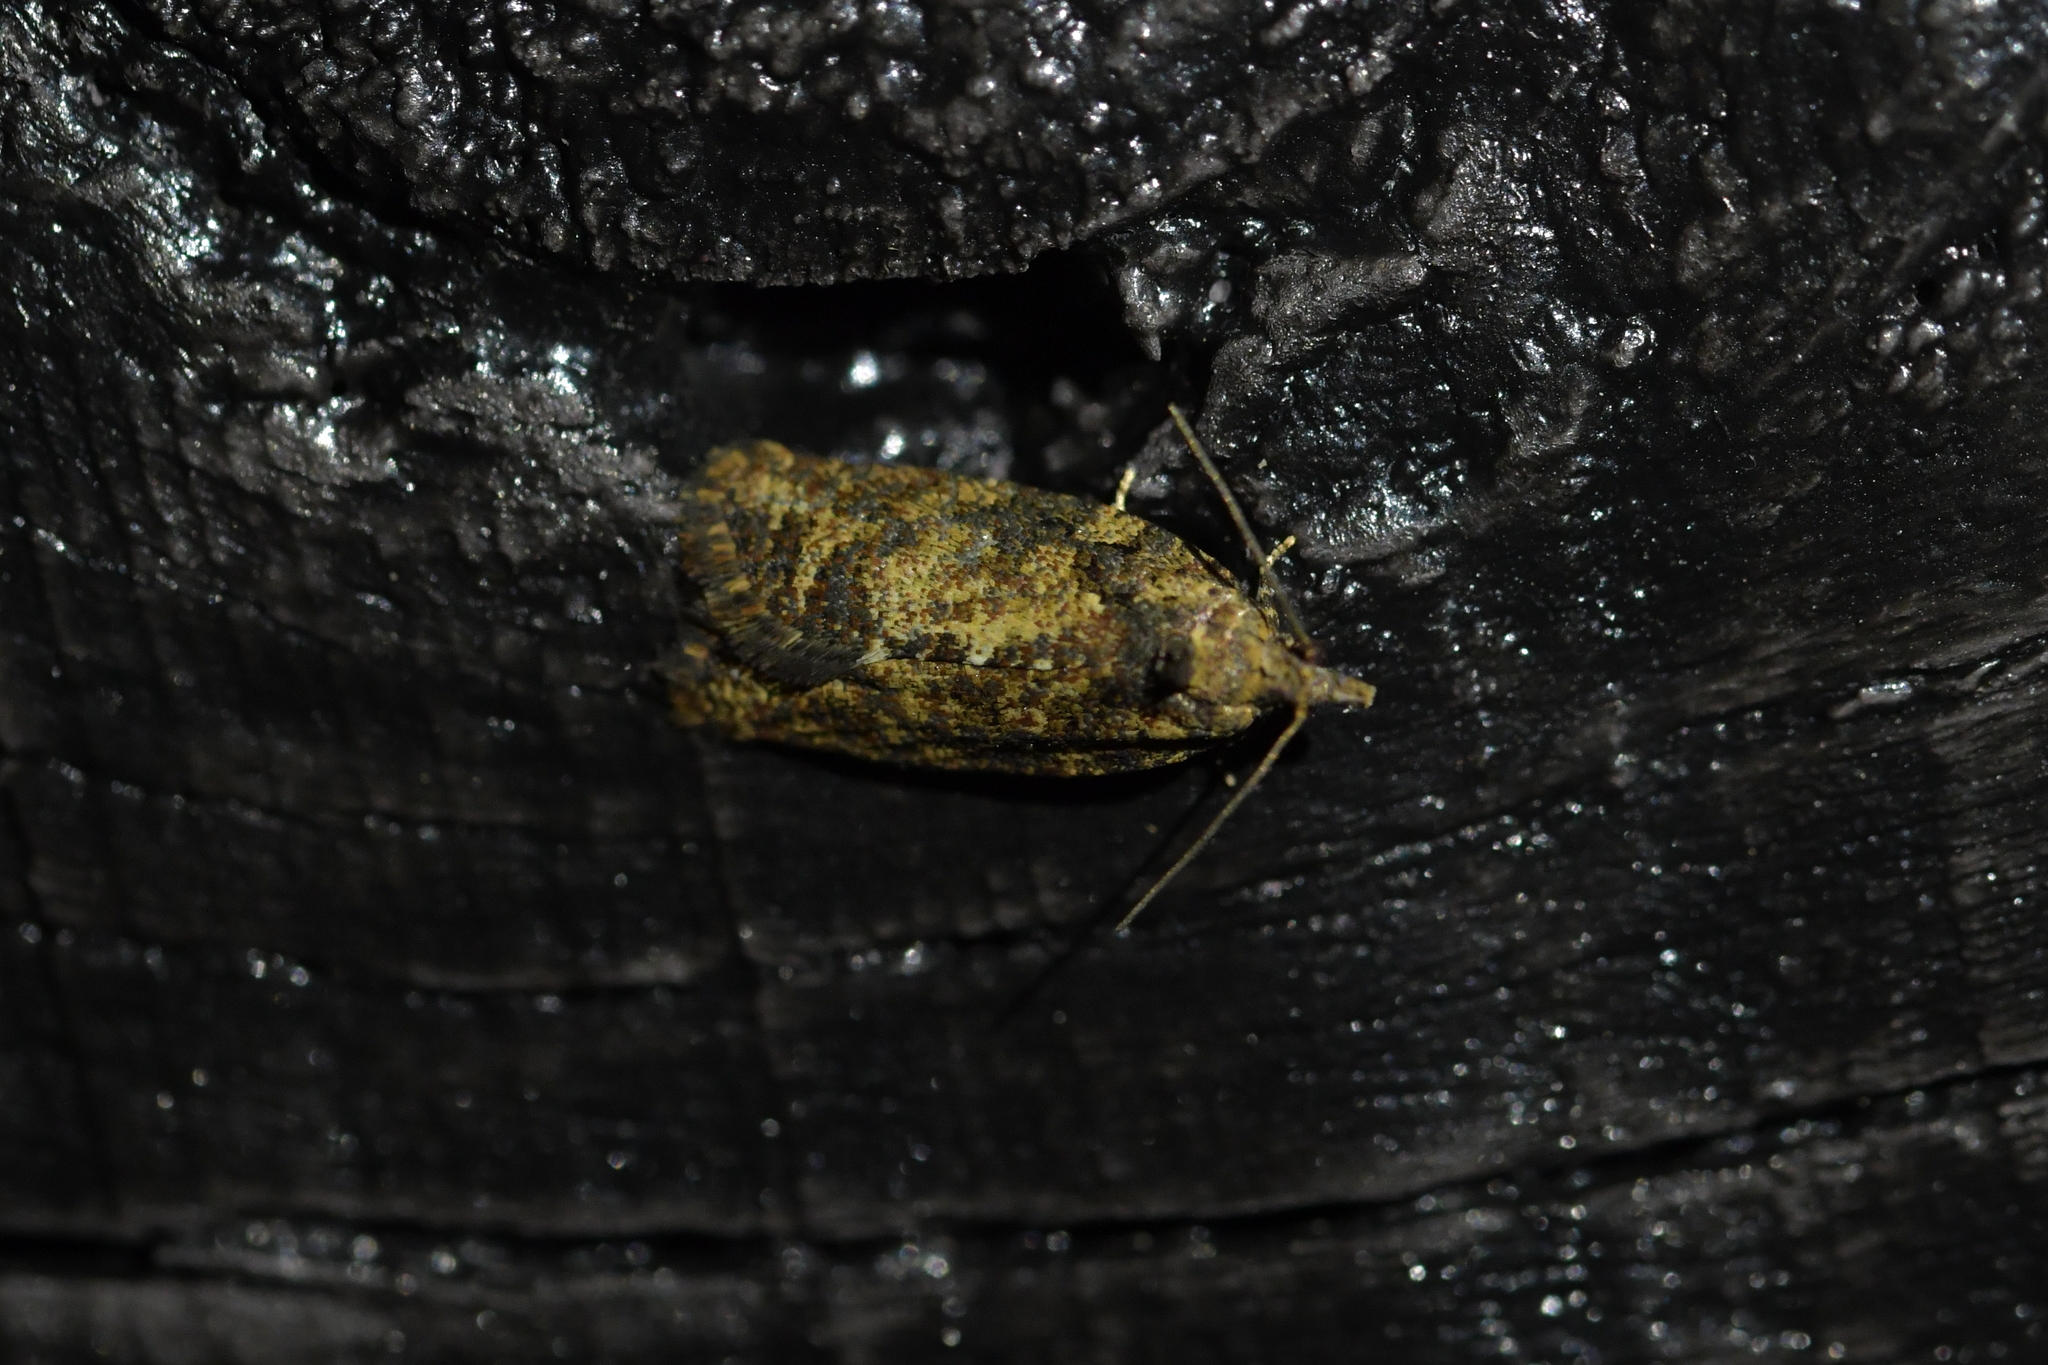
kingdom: Animalia
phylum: Arthropoda
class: Insecta
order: Lepidoptera
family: Tortricidae
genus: Capua
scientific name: Capua intractana
